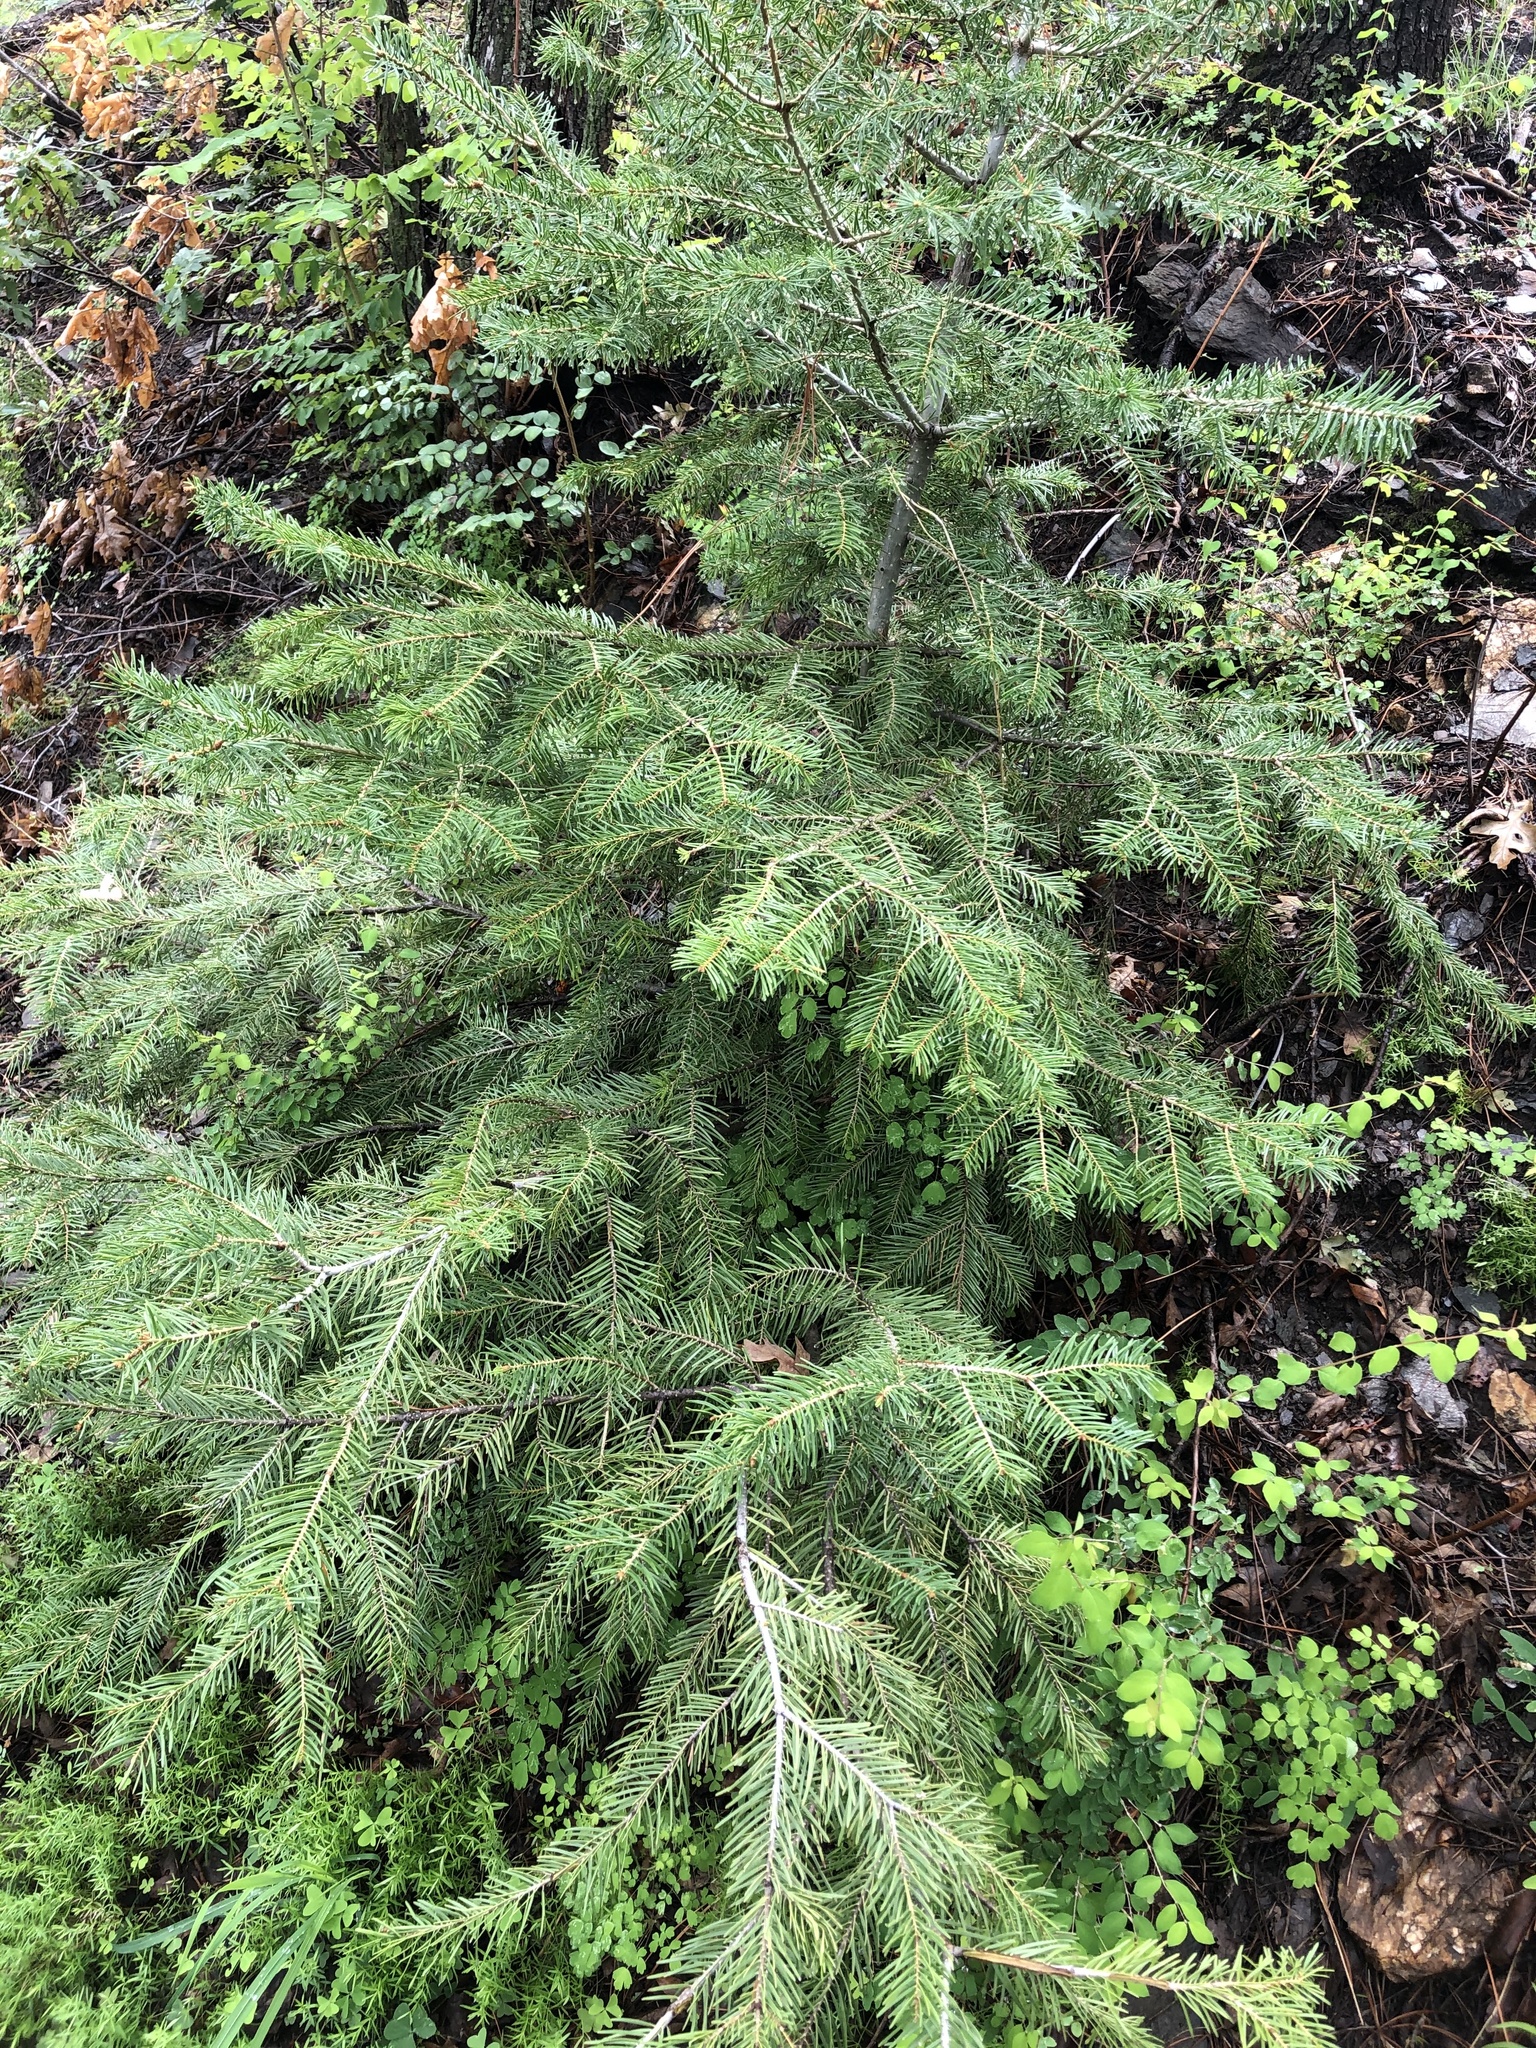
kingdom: Plantae
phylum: Tracheophyta
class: Pinopsida
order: Pinales
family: Pinaceae
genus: Abies
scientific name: Abies concolor
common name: Colorado fir
